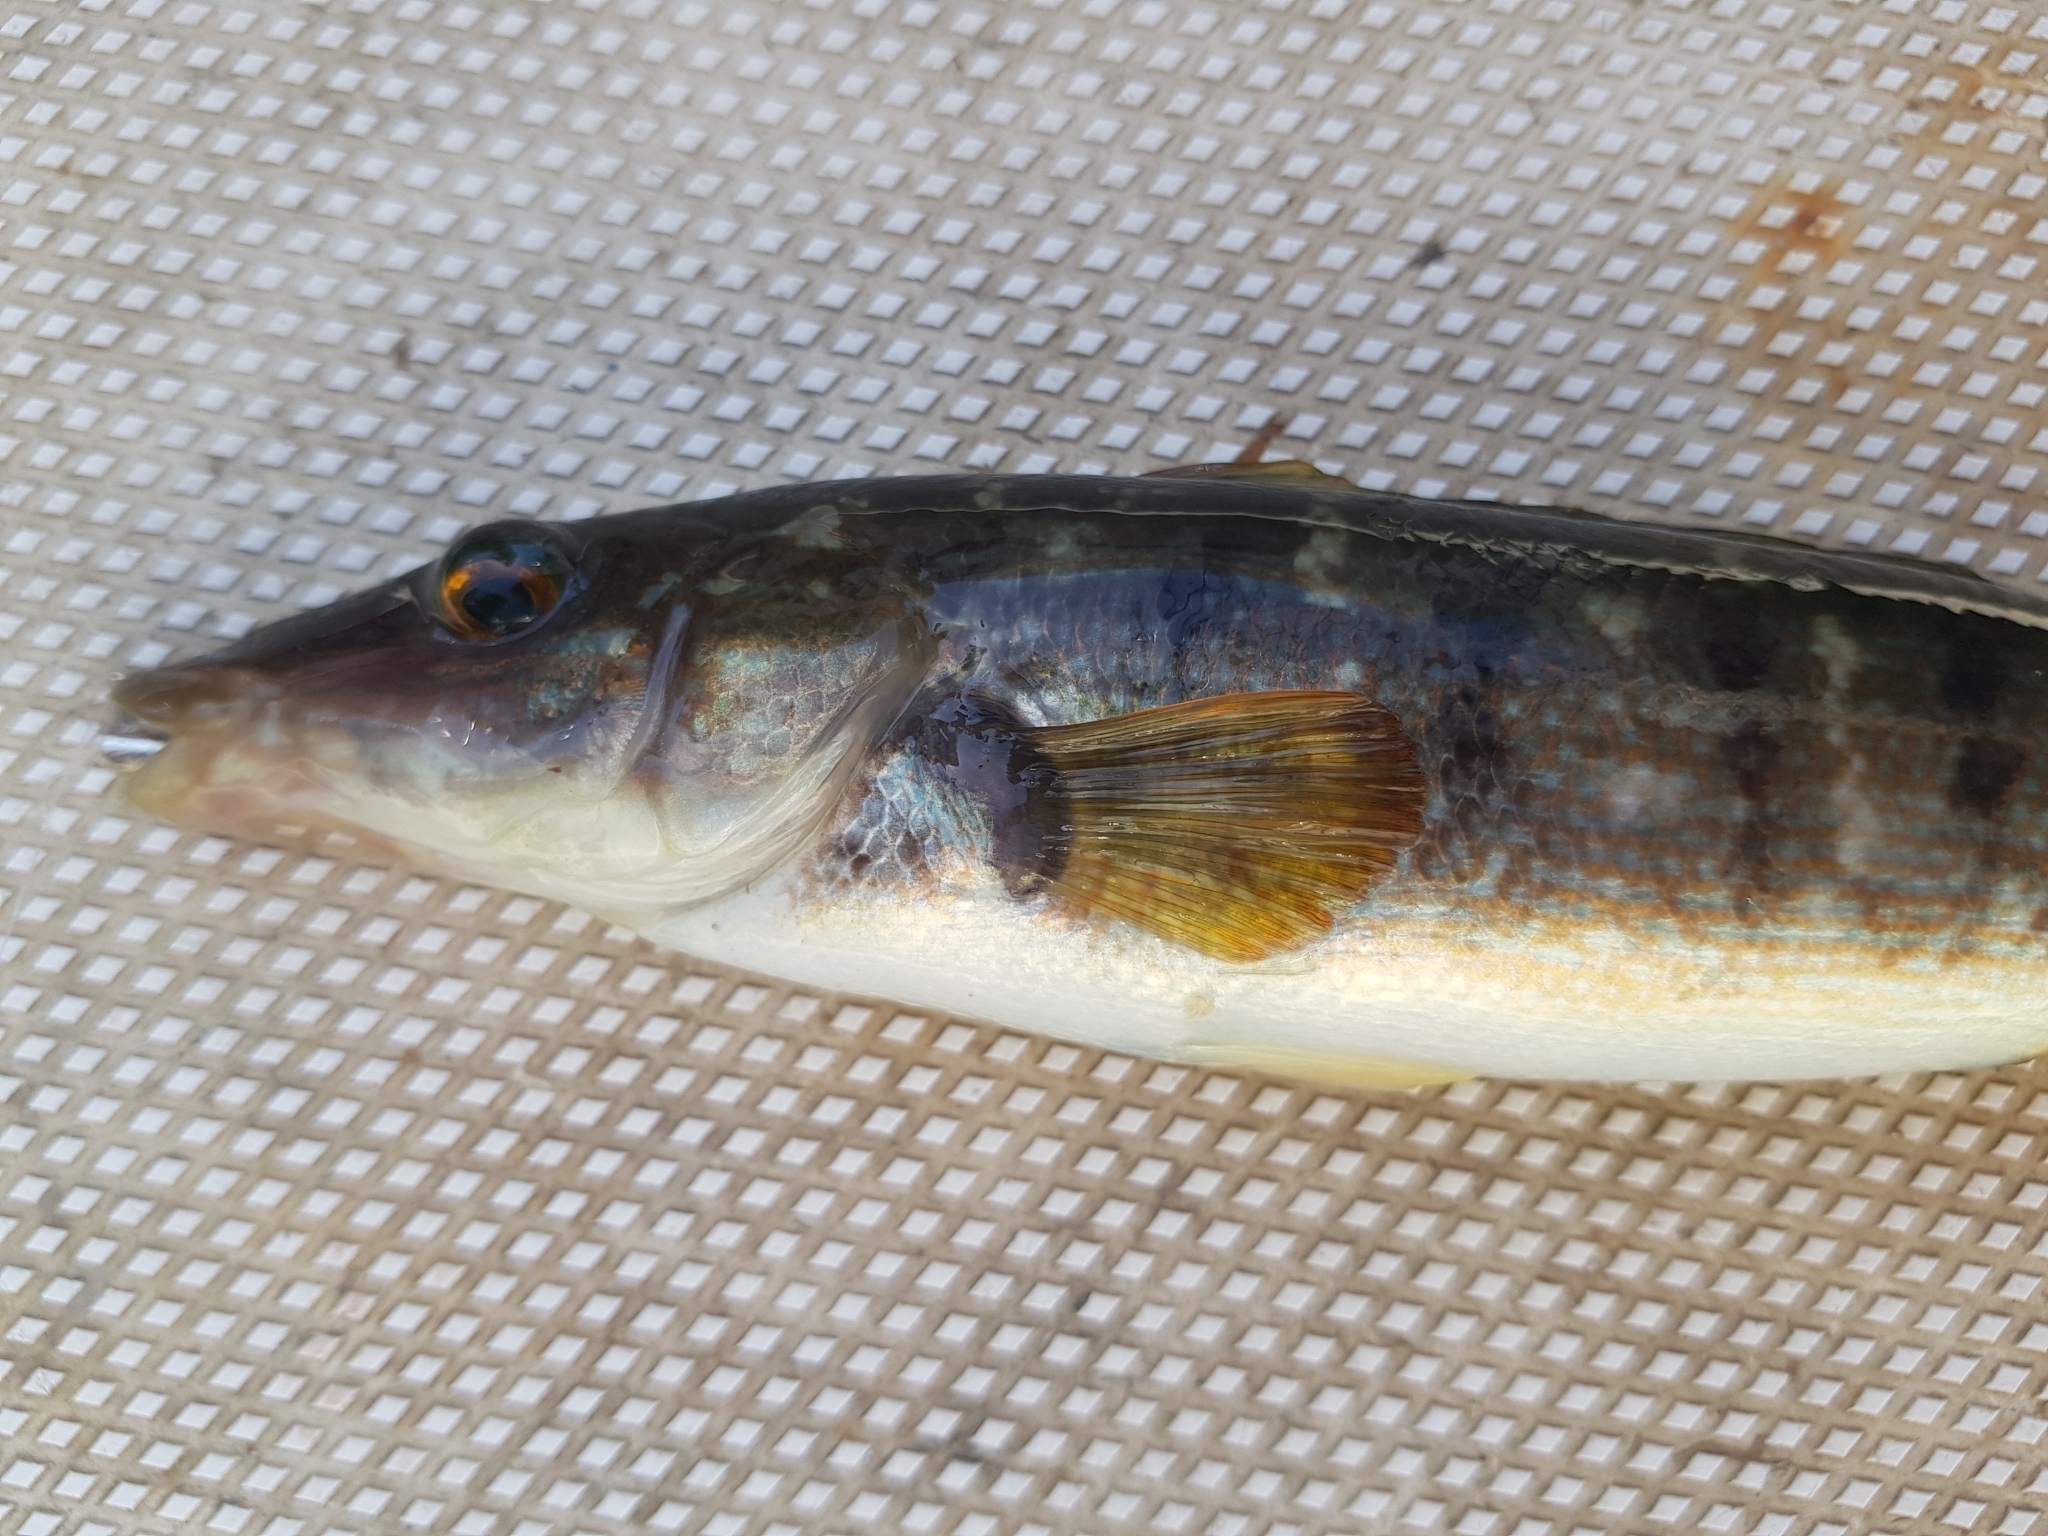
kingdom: Animalia
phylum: Chordata
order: Perciformes
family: Odacidae
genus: Haletta
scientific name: Haletta semifasciata
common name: Blue rock whiting
